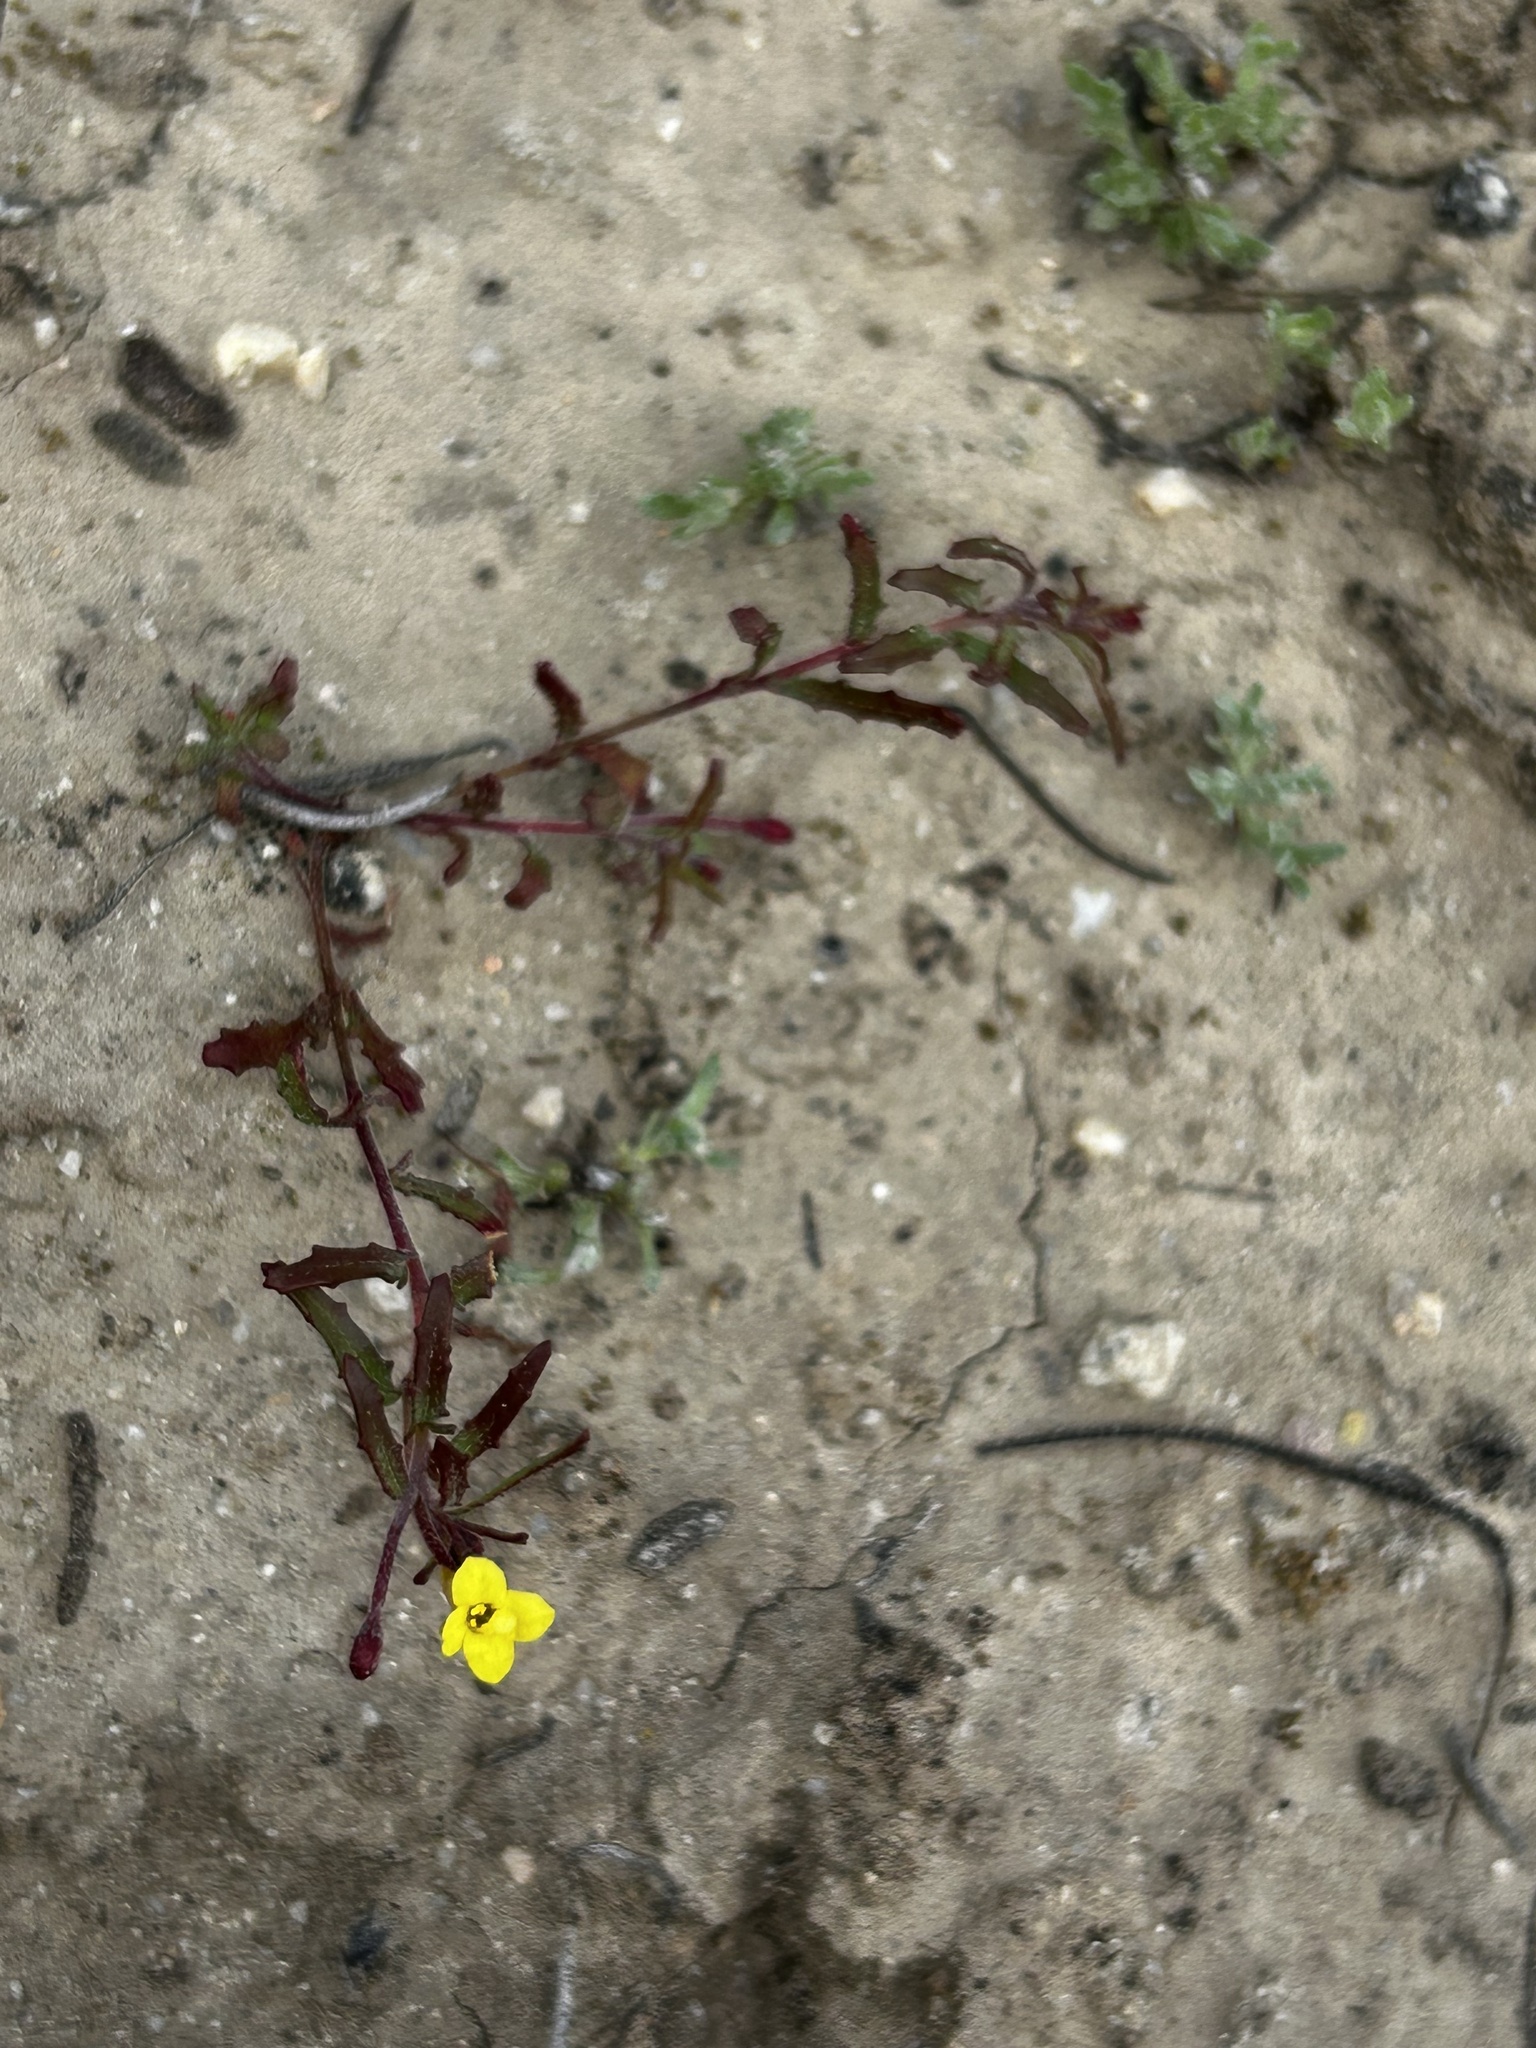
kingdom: Plantae
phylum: Tracheophyta
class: Magnoliopsida
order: Myrtales
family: Onagraceae
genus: Camissonia
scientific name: Camissonia contorta
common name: Contorted suncup
